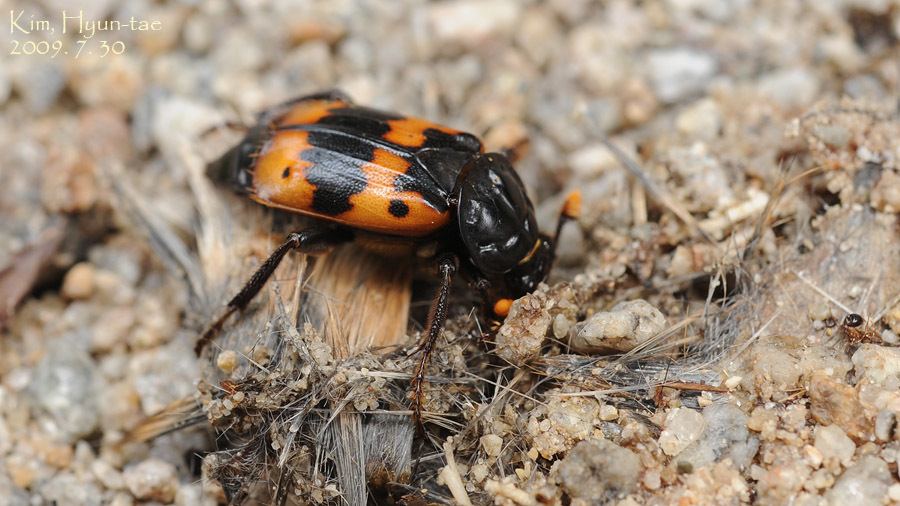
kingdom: Animalia
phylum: Arthropoda
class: Insecta
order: Coleoptera
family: Staphylinidae
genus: Nicrophorus
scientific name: Nicrophorus quadripunctatus
